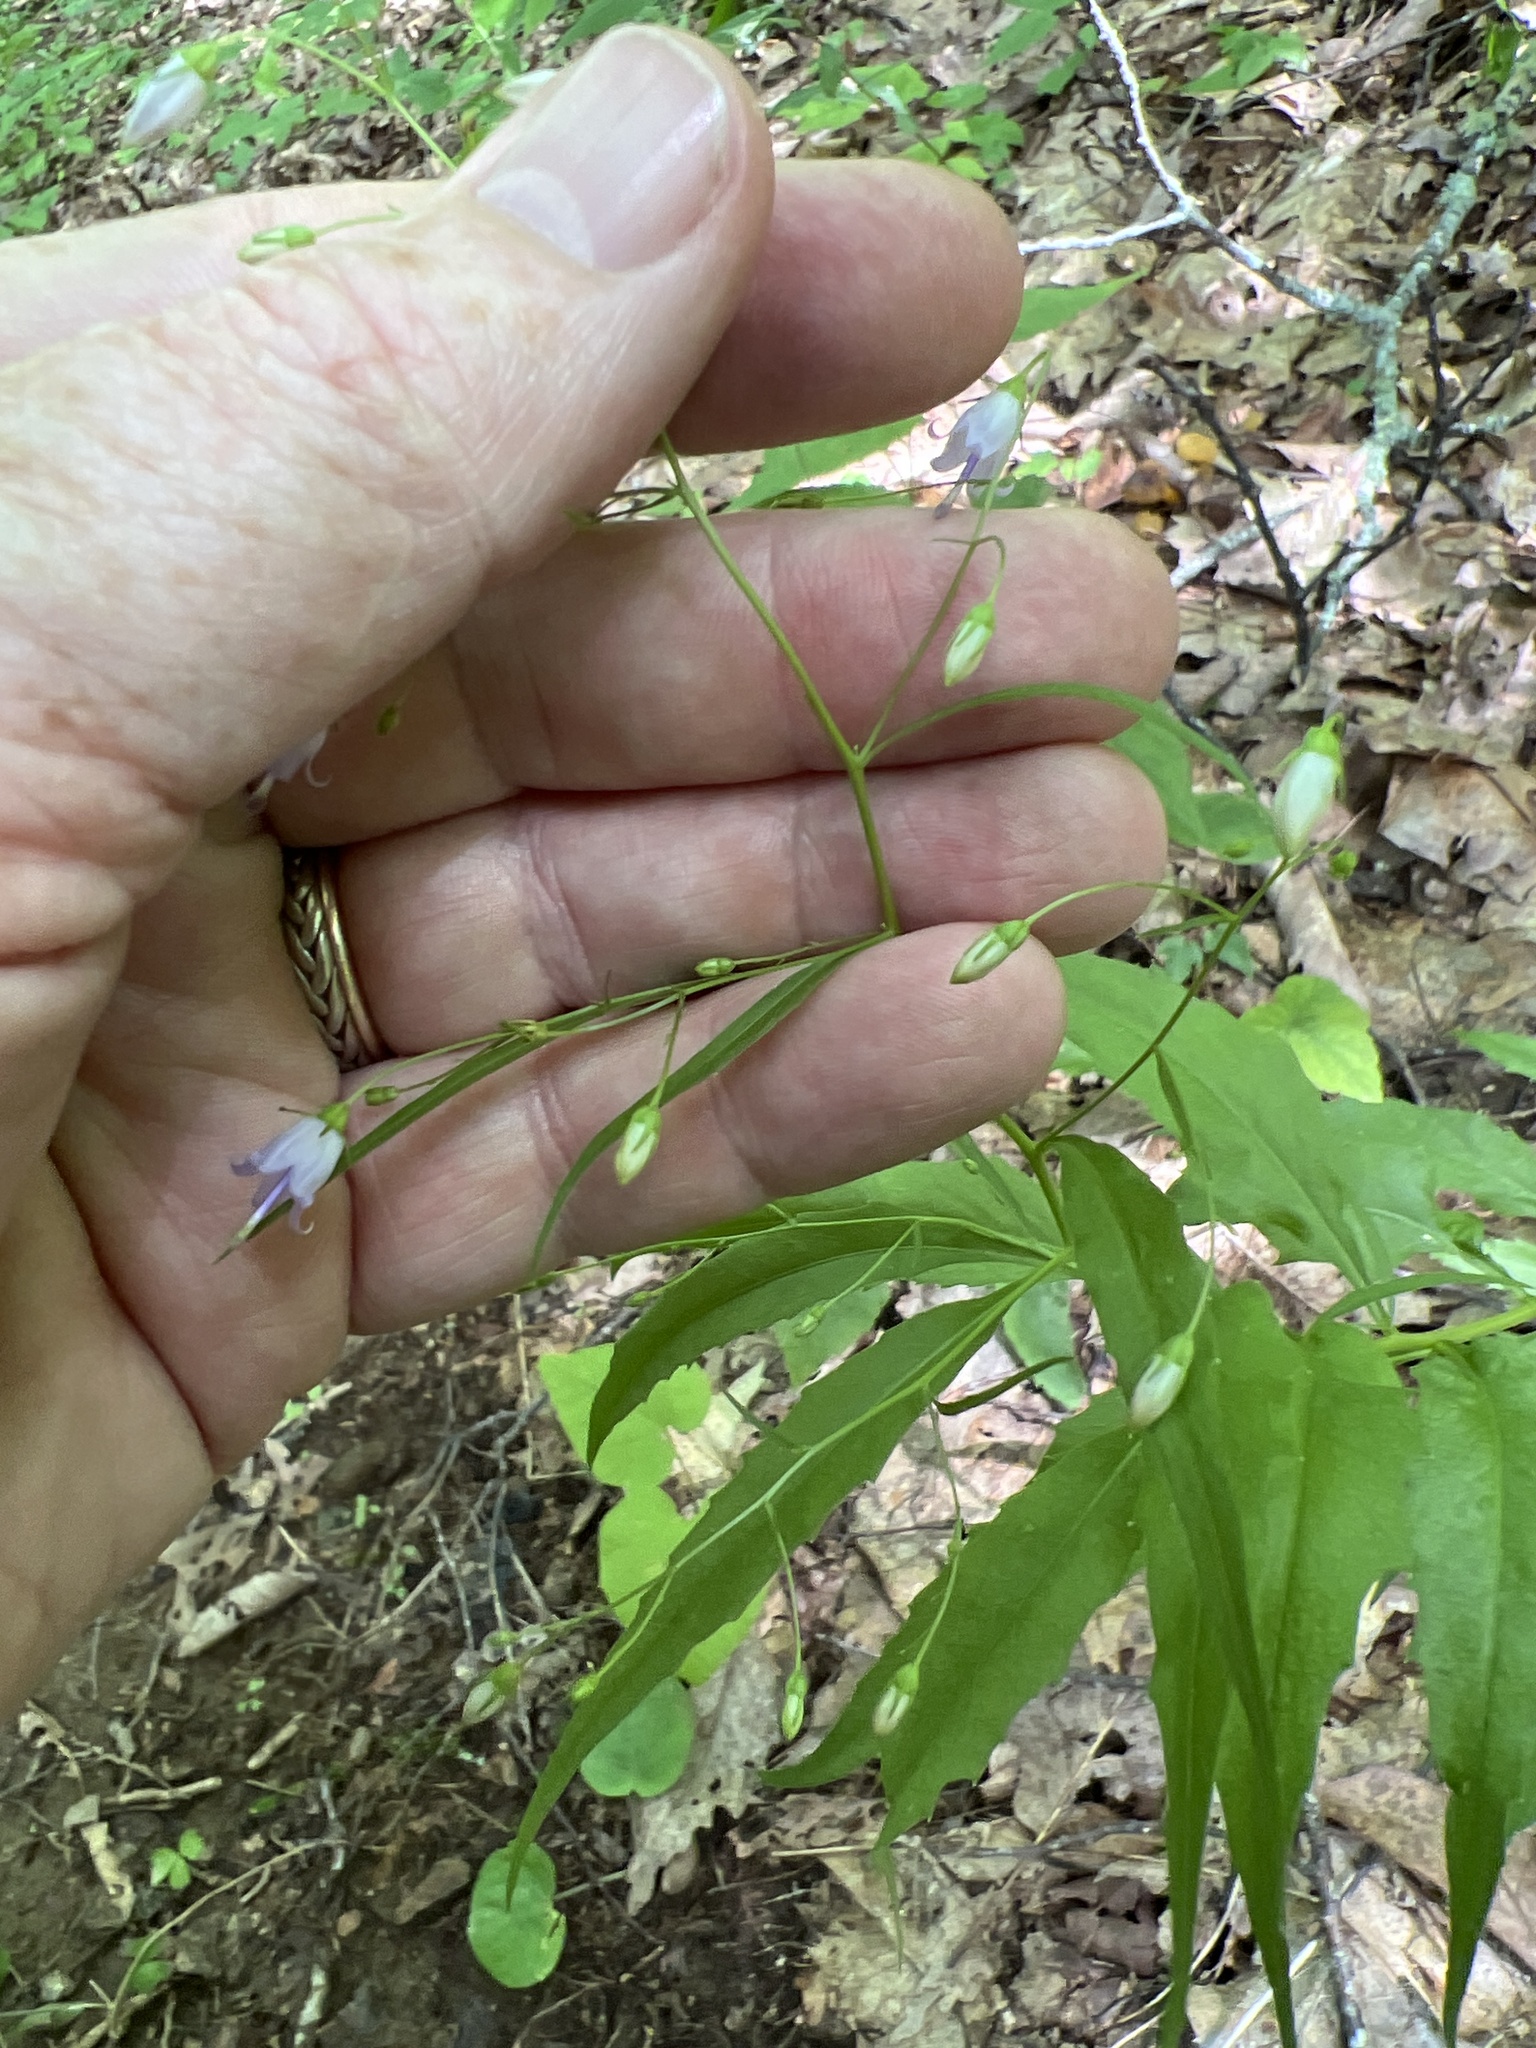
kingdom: Plantae
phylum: Tracheophyta
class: Magnoliopsida
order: Asterales
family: Campanulaceae
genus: Campanula
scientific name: Campanula divaricata
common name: Appalachian bellflower
